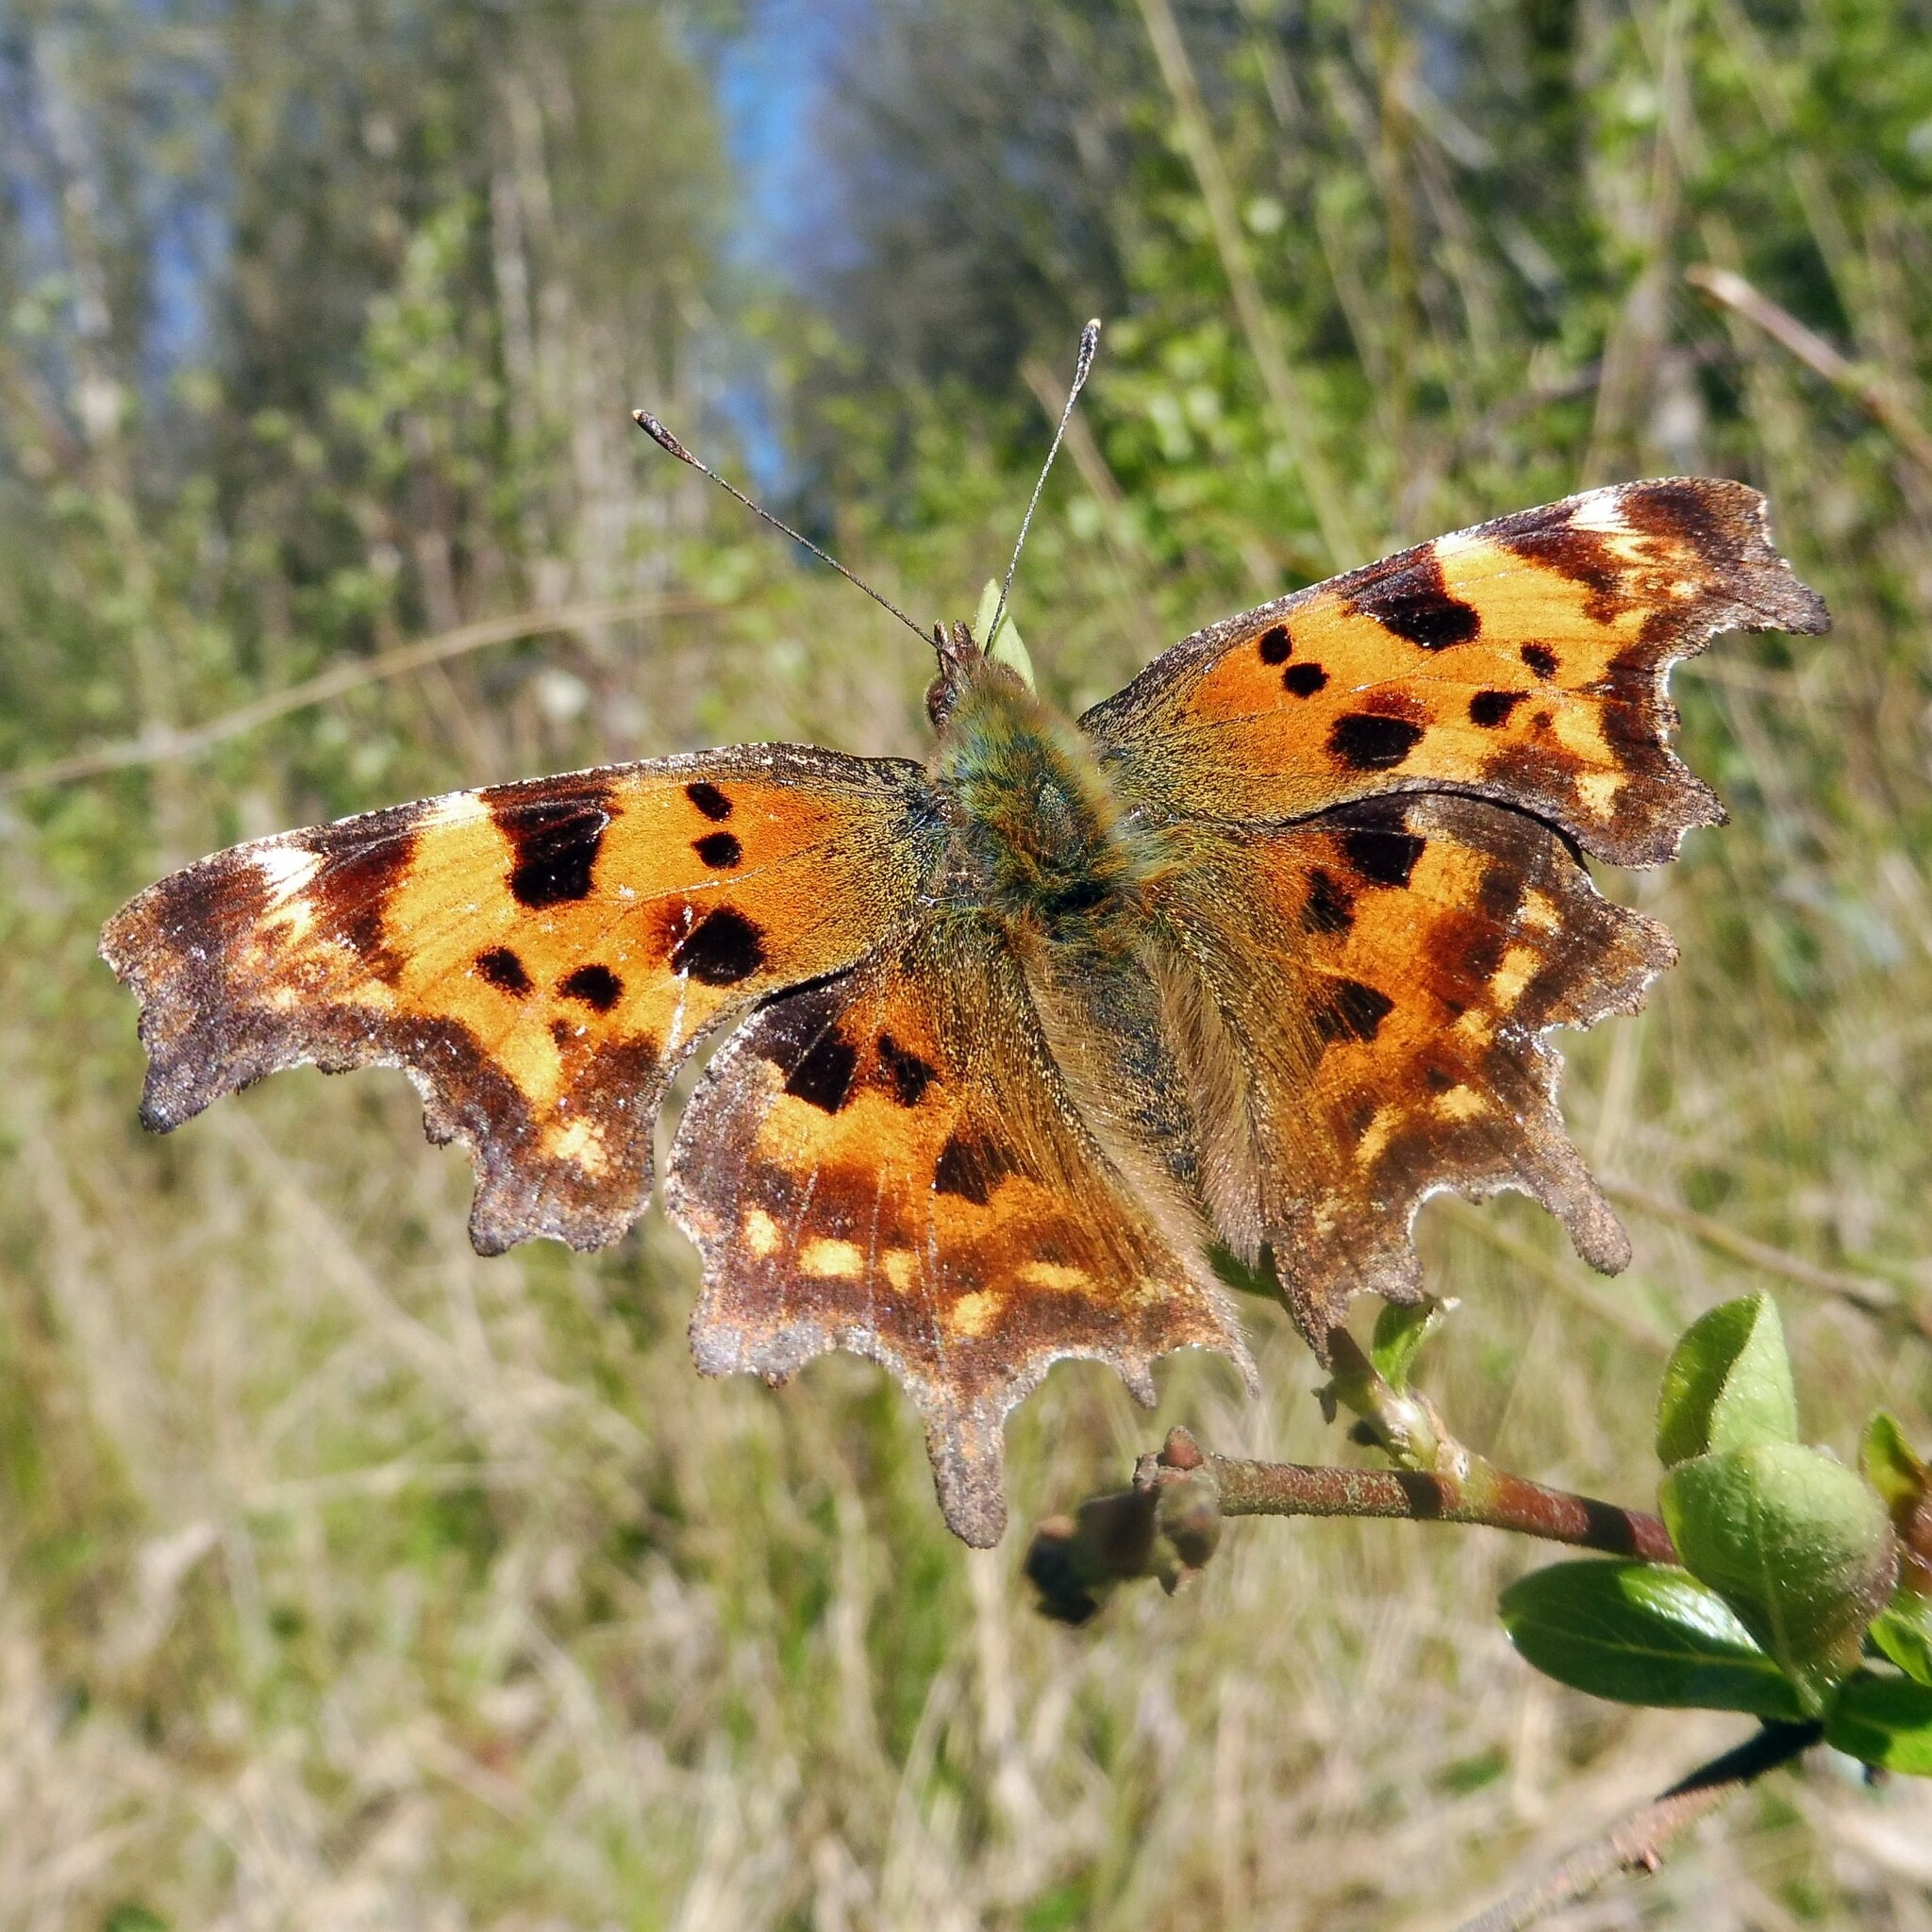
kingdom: Animalia
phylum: Arthropoda
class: Insecta
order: Lepidoptera
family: Nymphalidae
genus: Polygonia
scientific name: Polygonia c-album
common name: Comma
